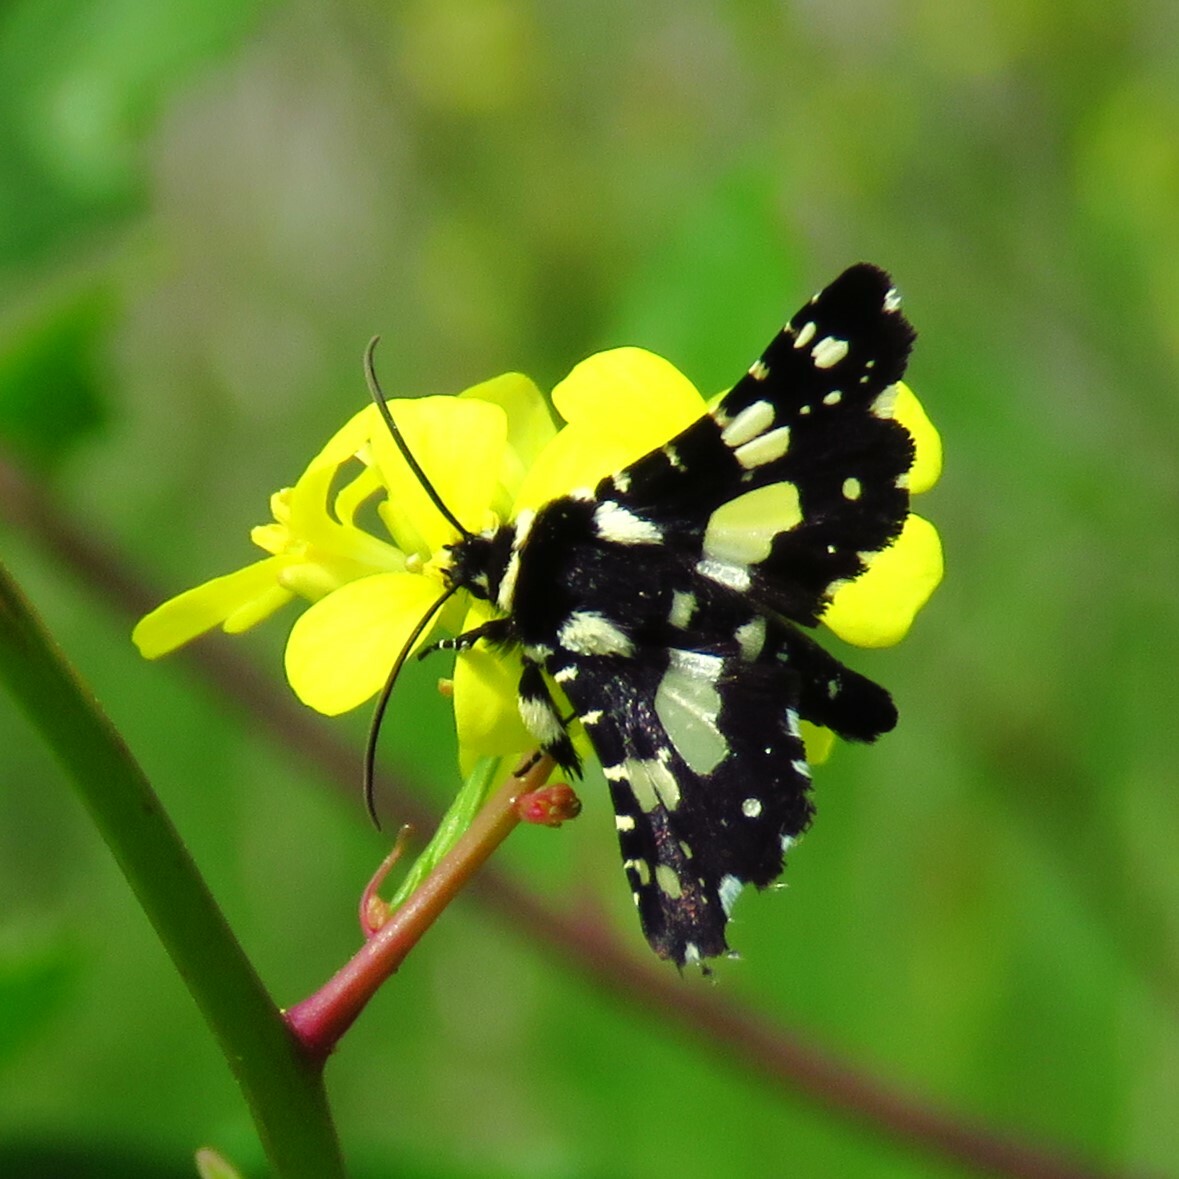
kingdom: Animalia
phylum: Arthropoda
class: Insecta
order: Lepidoptera
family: Thyrididae
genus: Pseudothyris
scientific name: Pseudothyris sepulchralis
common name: Mournful thyris moth
